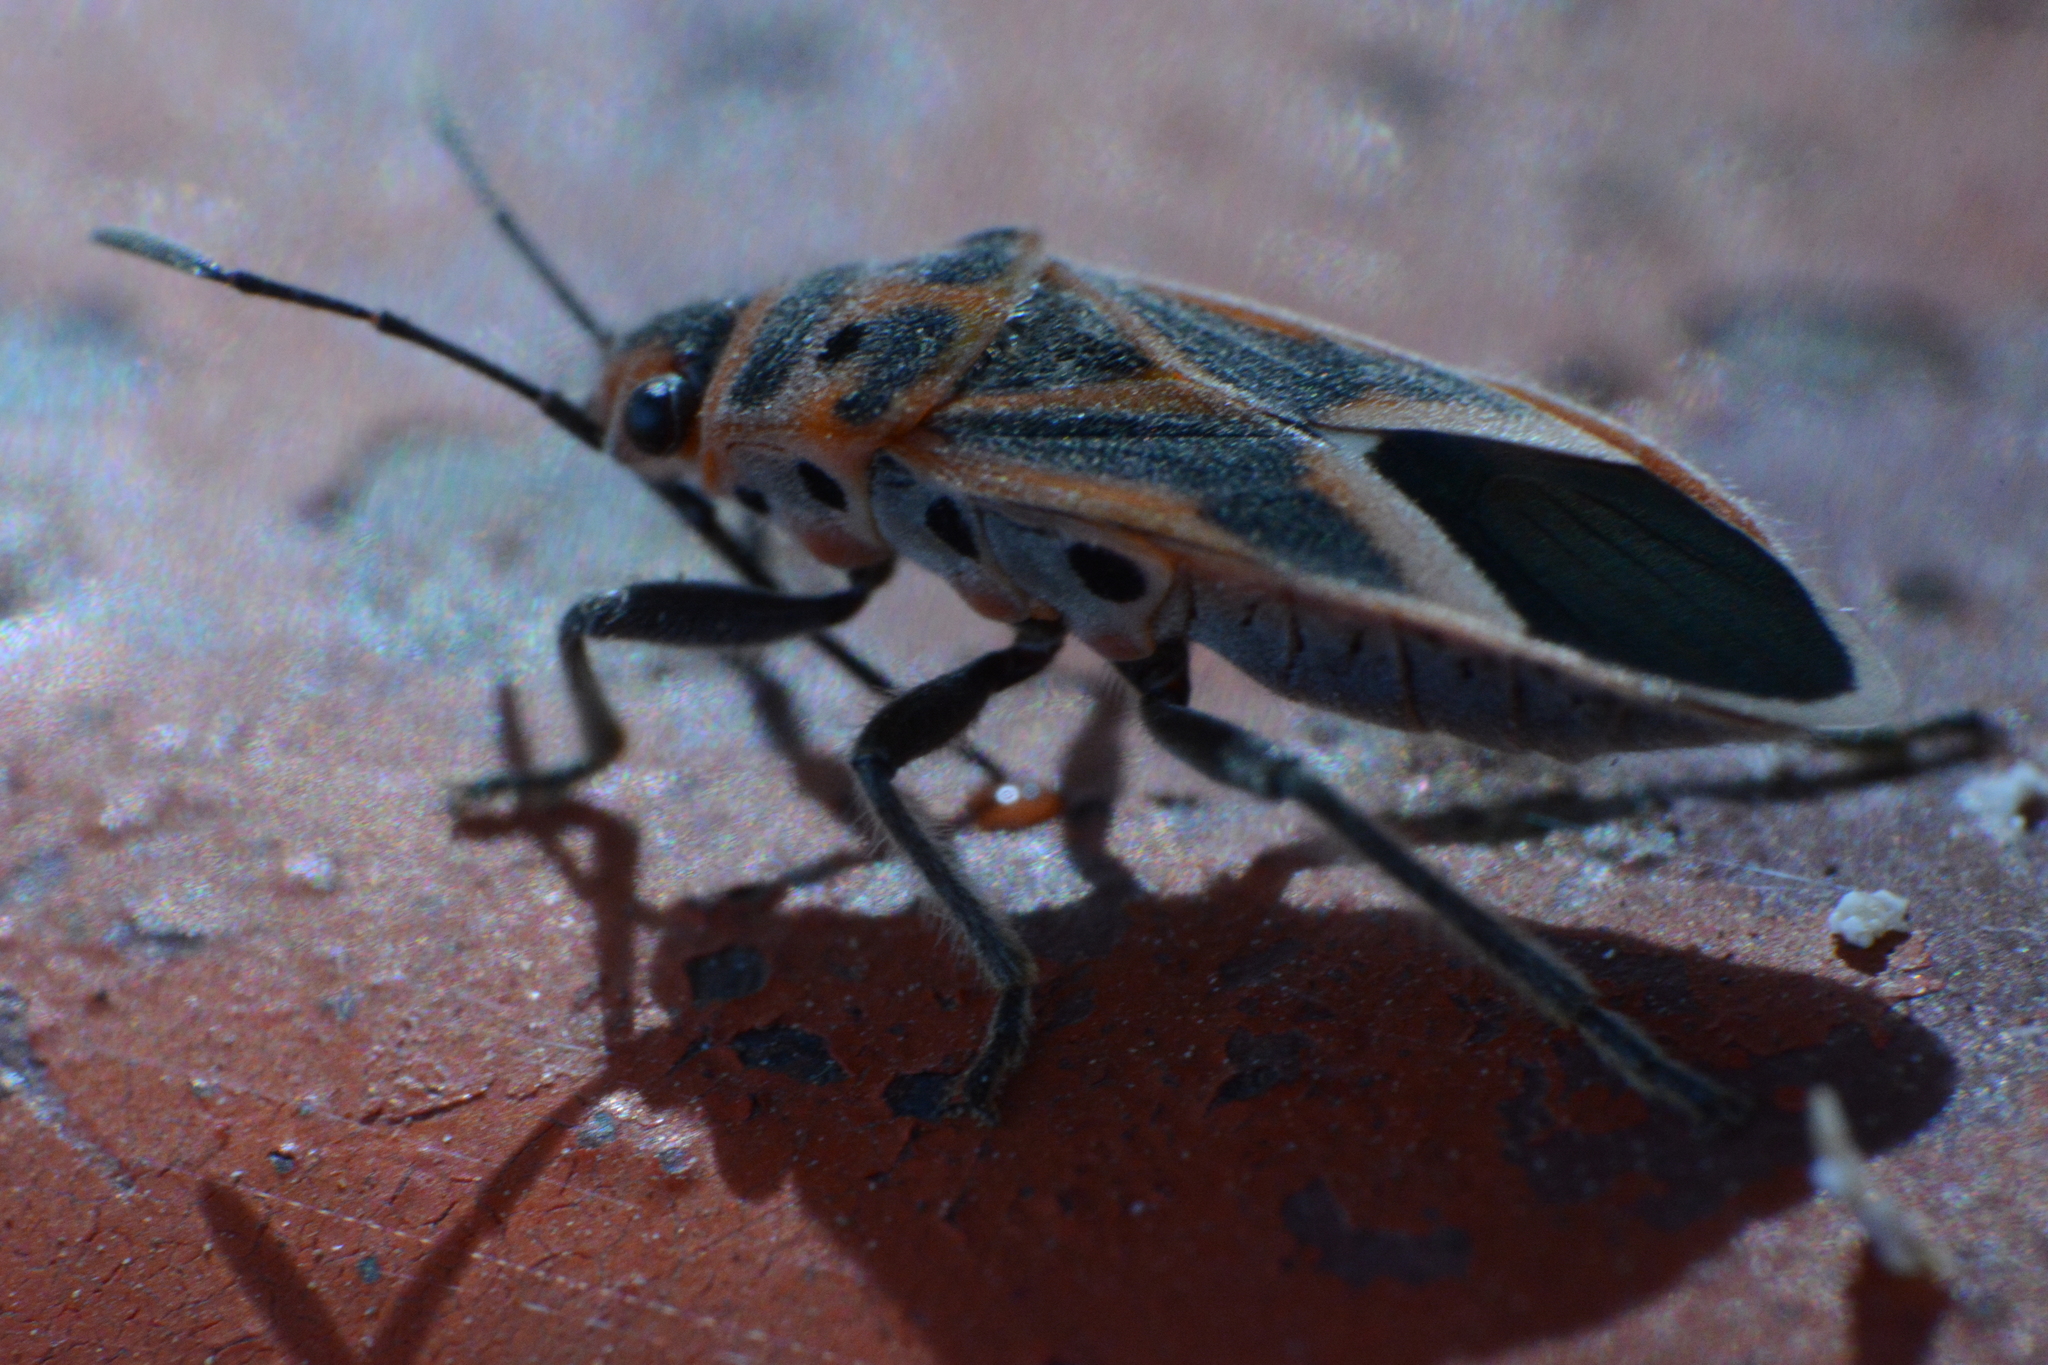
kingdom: Animalia
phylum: Arthropoda
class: Insecta
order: Hemiptera
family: Lygaeidae
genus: Graptostethus
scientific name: Graptostethus servus
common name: Lygaeid bug
